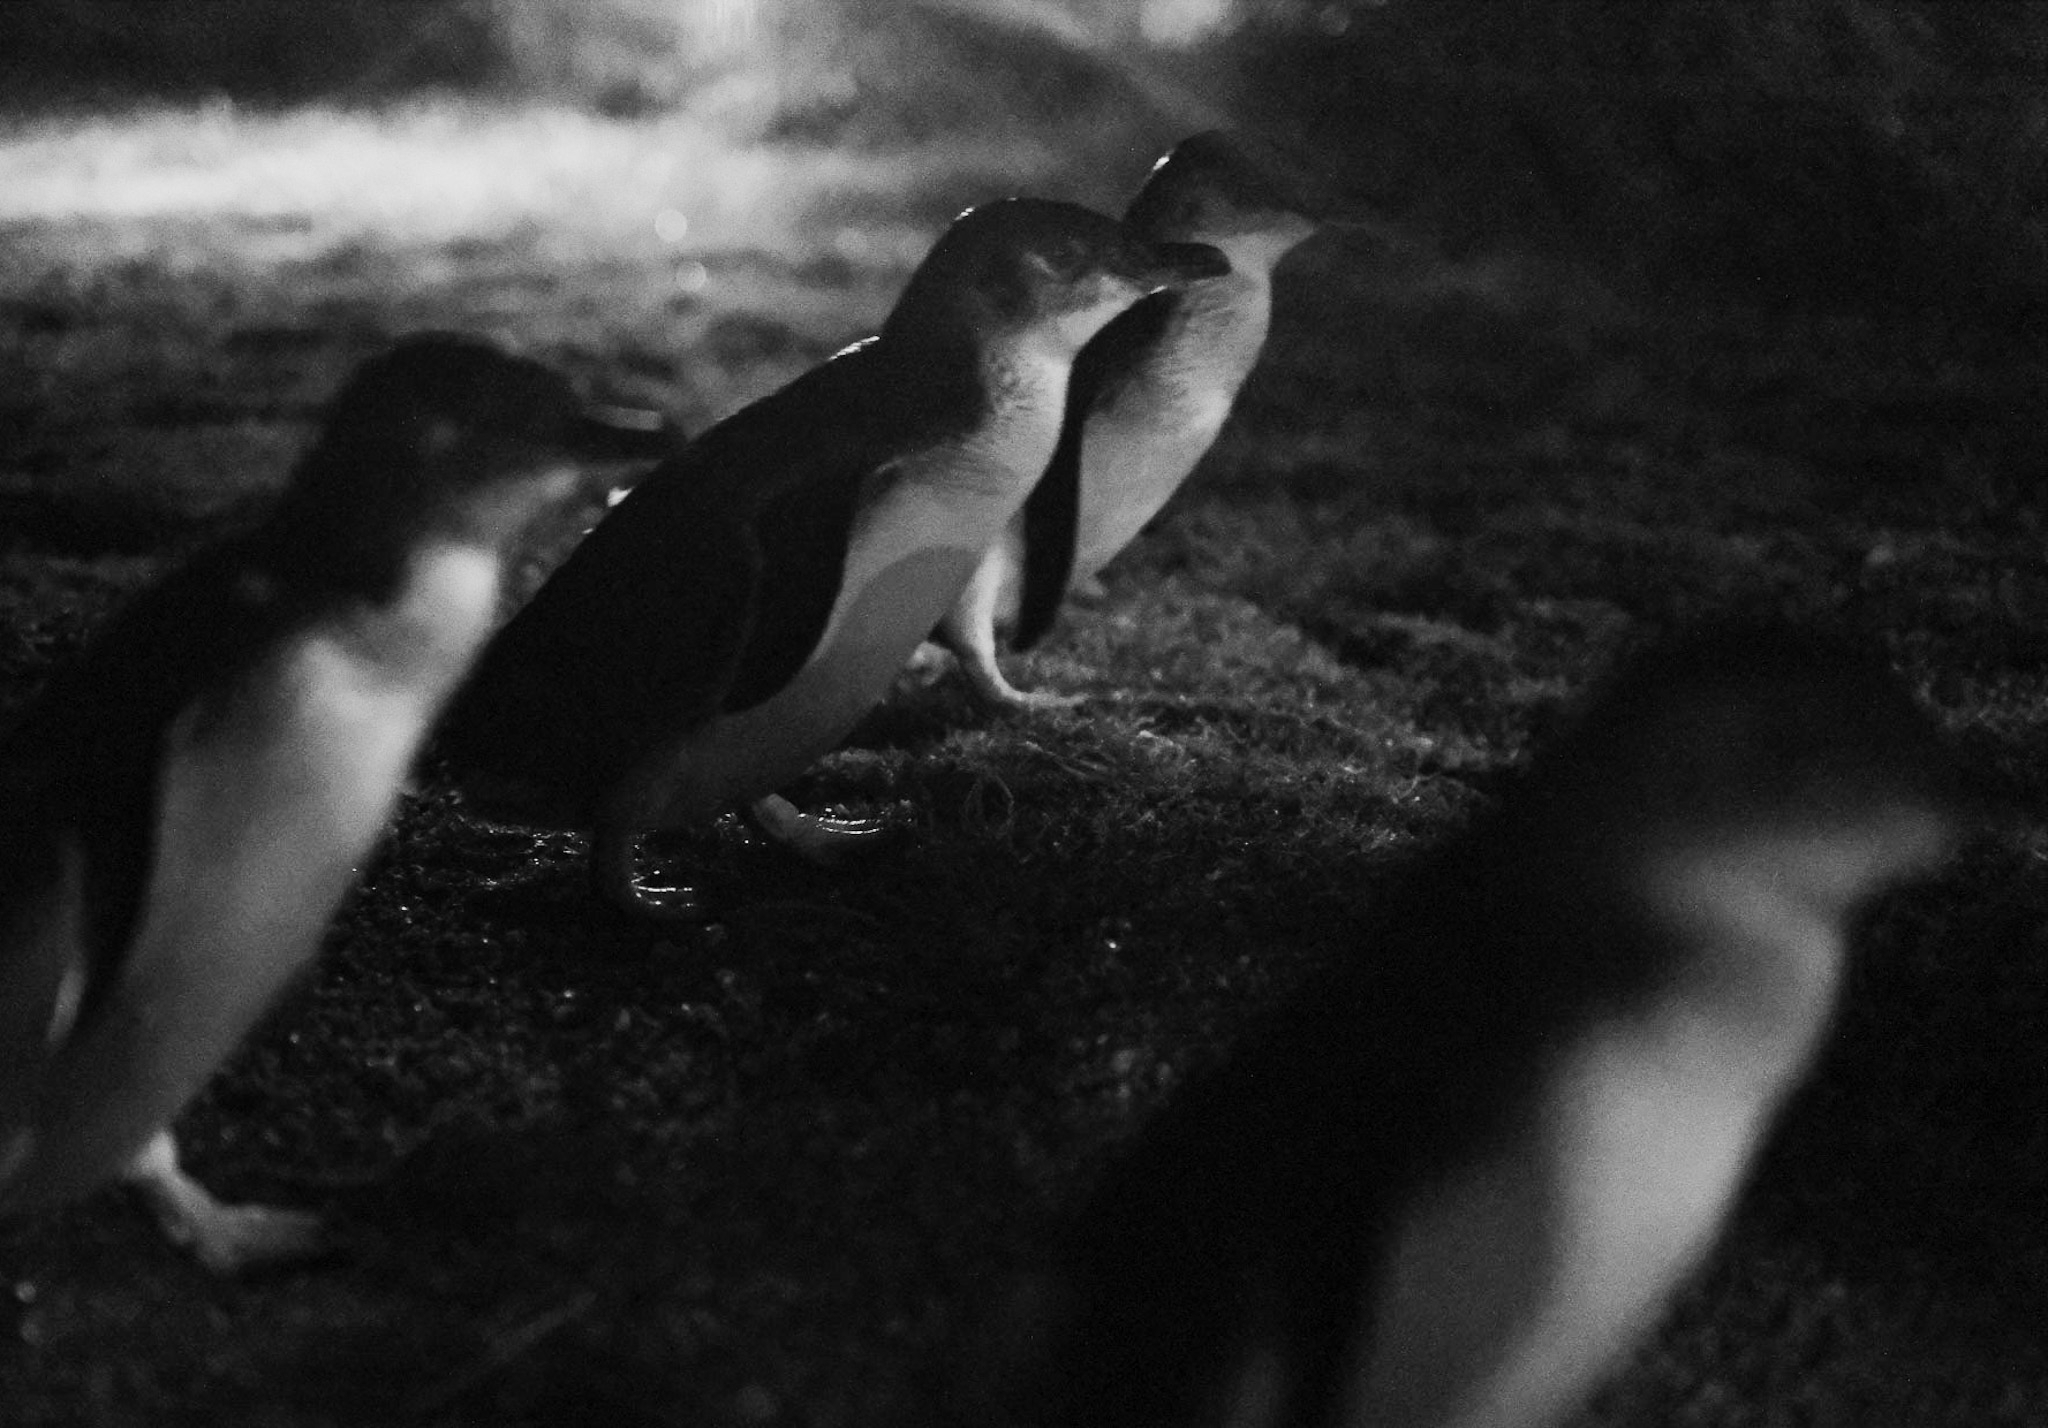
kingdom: Animalia
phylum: Chordata
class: Aves
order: Sphenisciformes
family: Spheniscidae
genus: Eudyptula
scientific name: Eudyptula minor
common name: Little penguin
